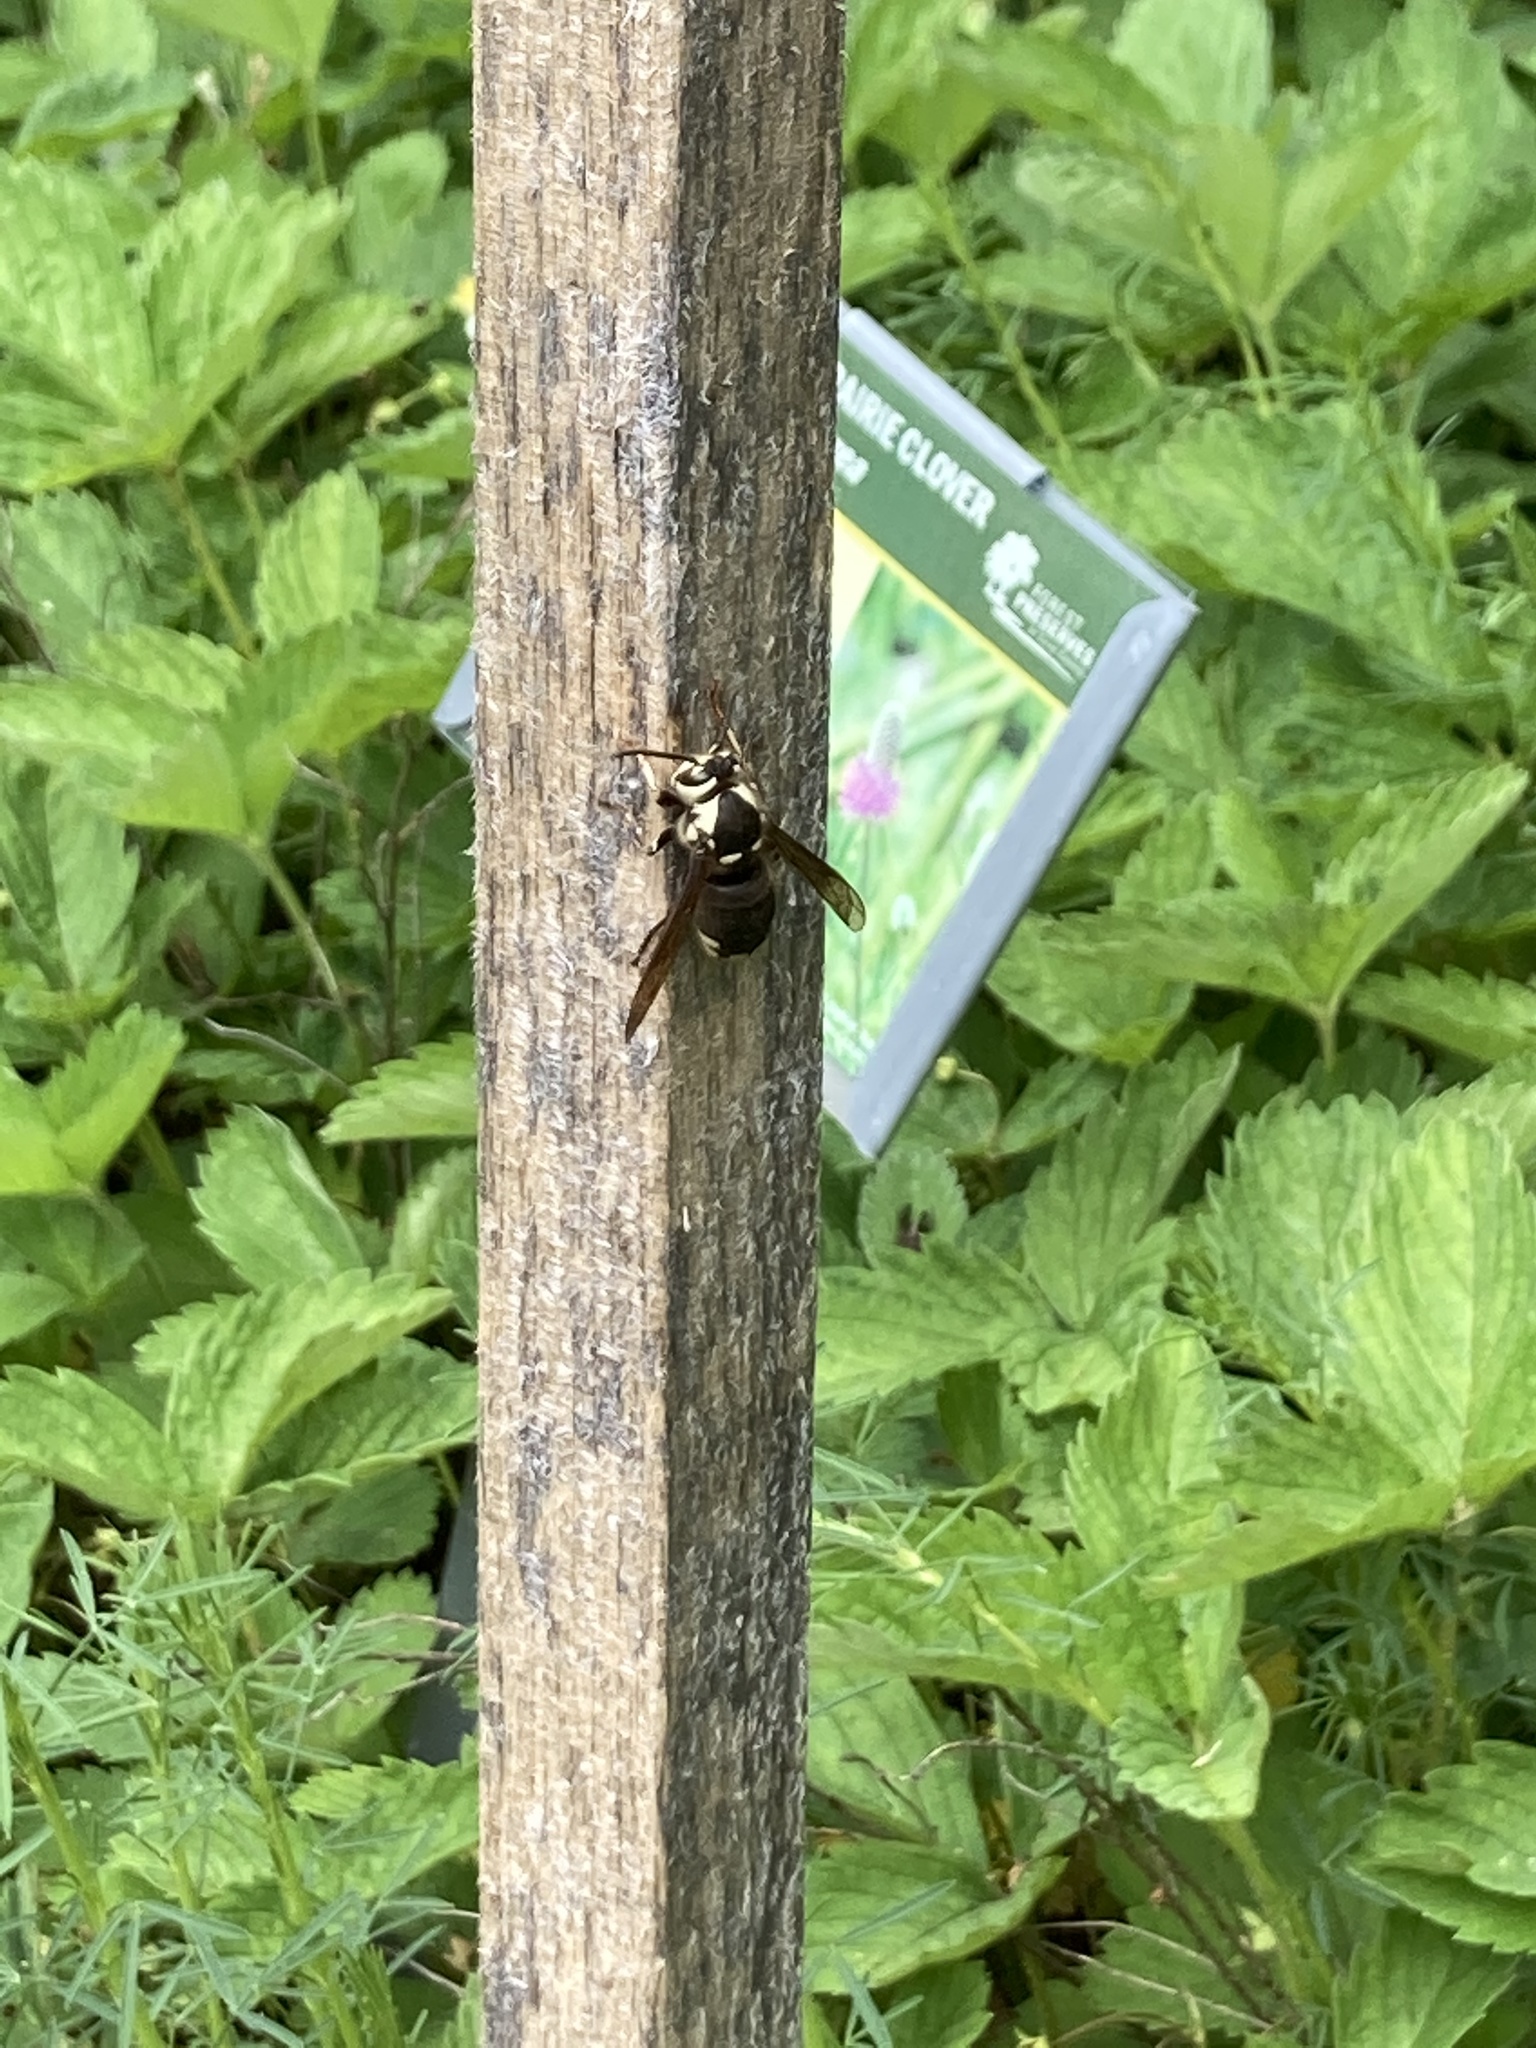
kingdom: Animalia
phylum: Arthropoda
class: Insecta
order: Hymenoptera
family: Vespidae
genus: Dolichovespula
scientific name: Dolichovespula maculata
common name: Bald-faced hornet
